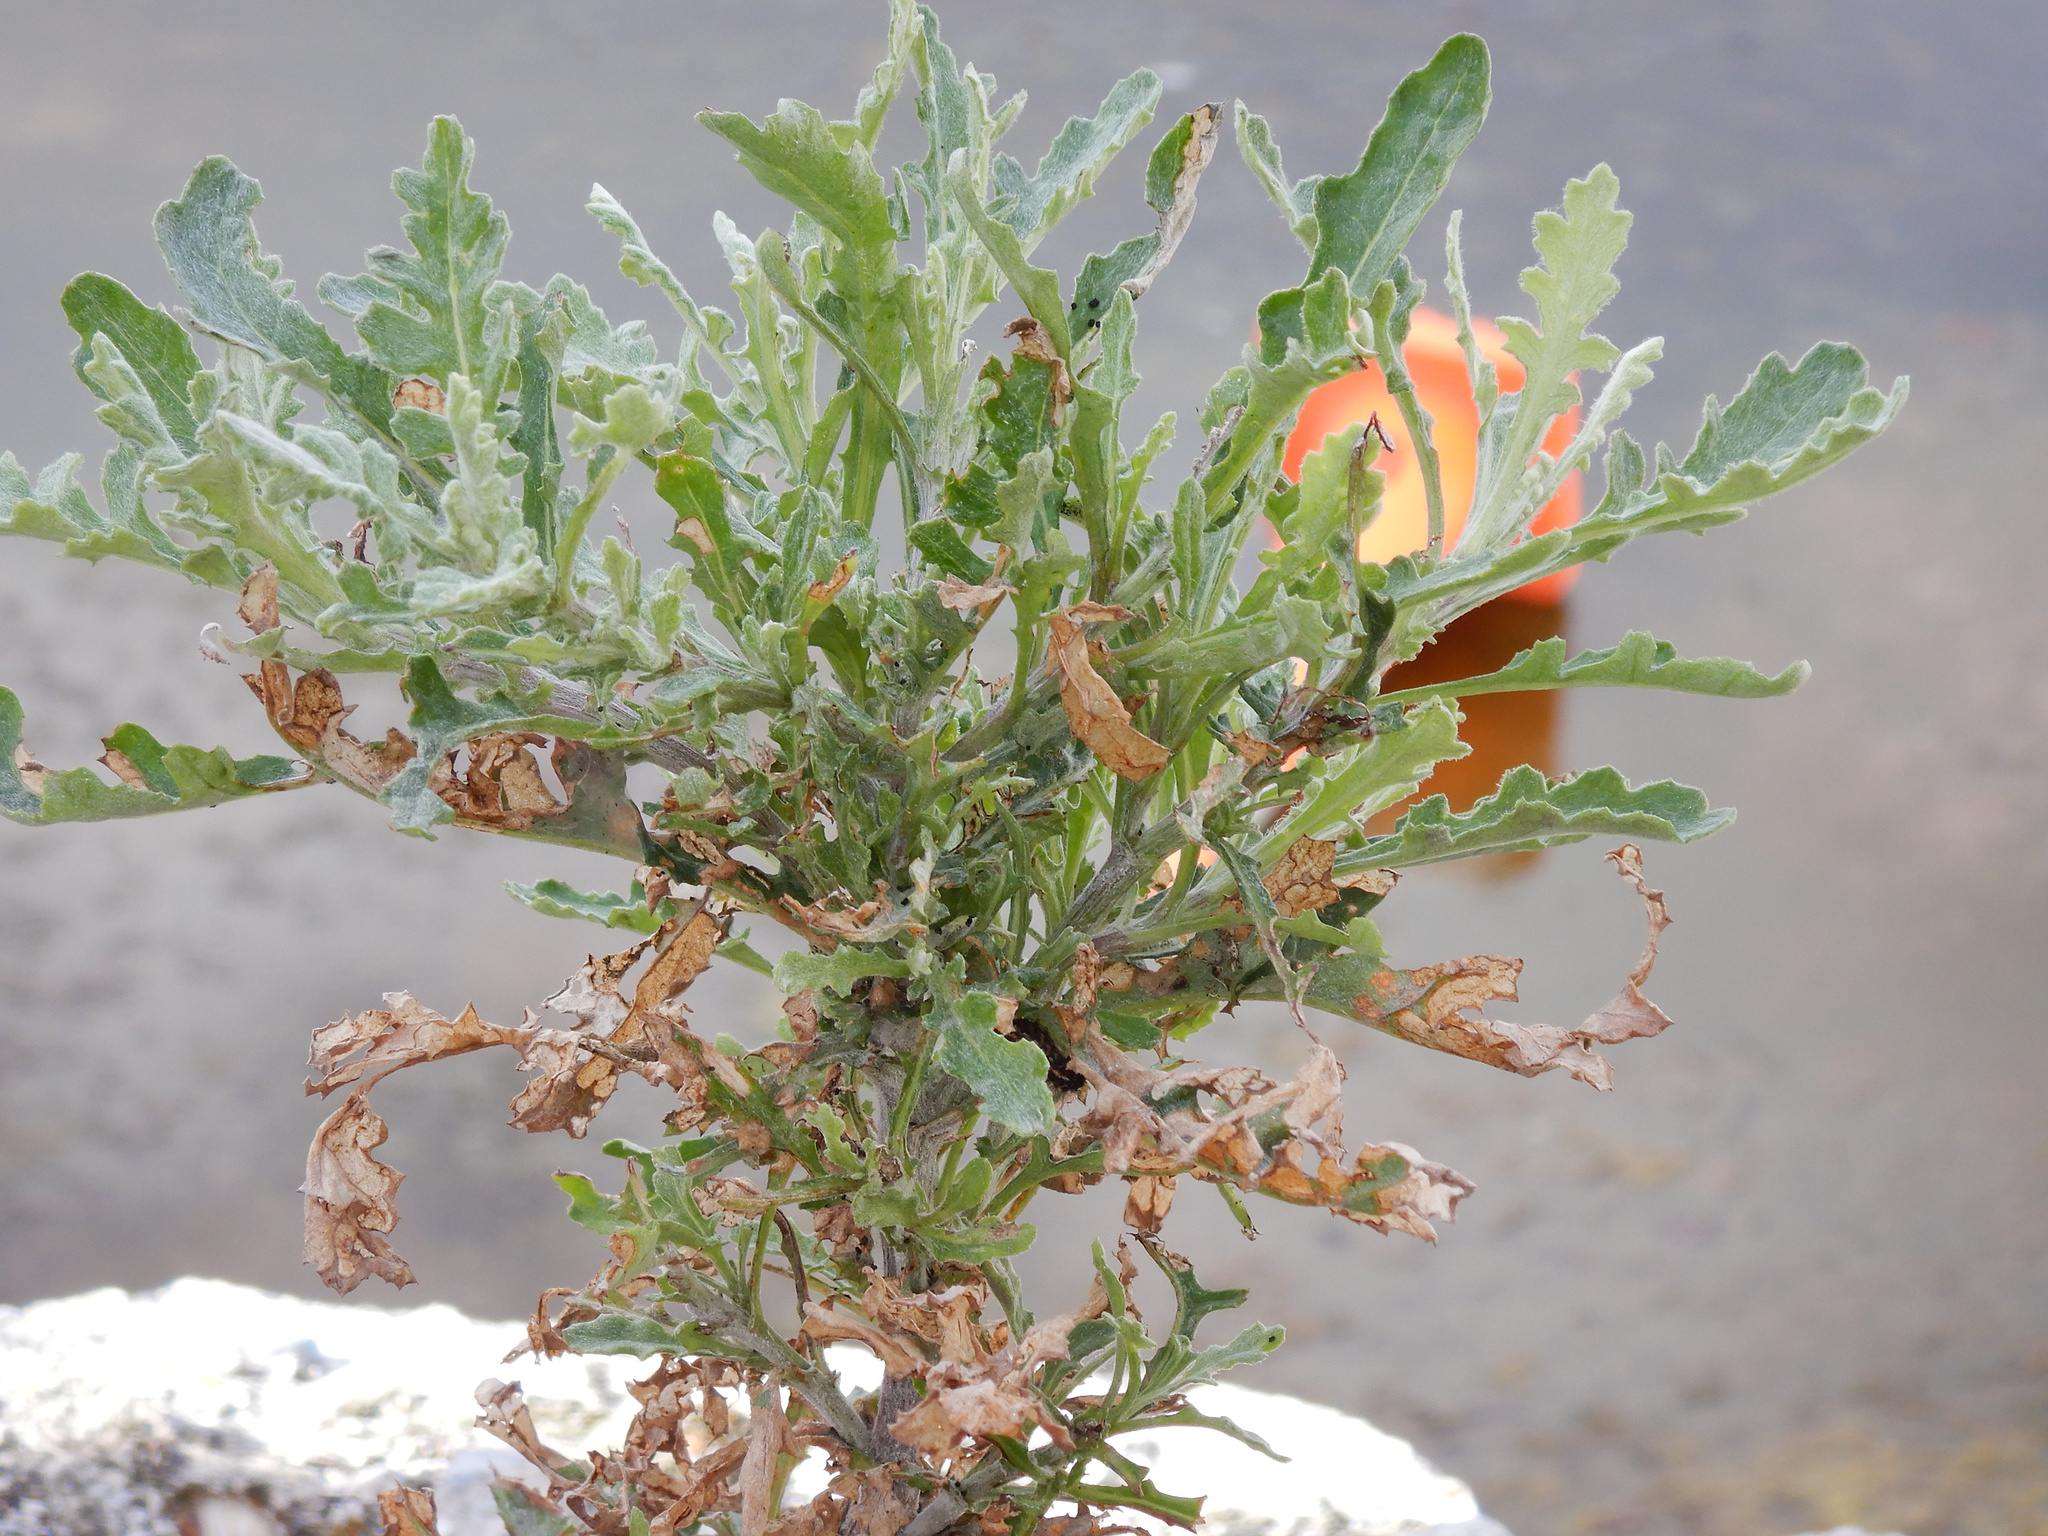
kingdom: Animalia
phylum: Arthropoda
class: Insecta
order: Lepidoptera
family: Erebidae
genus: Nyctemera
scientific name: Nyctemera annulatum
